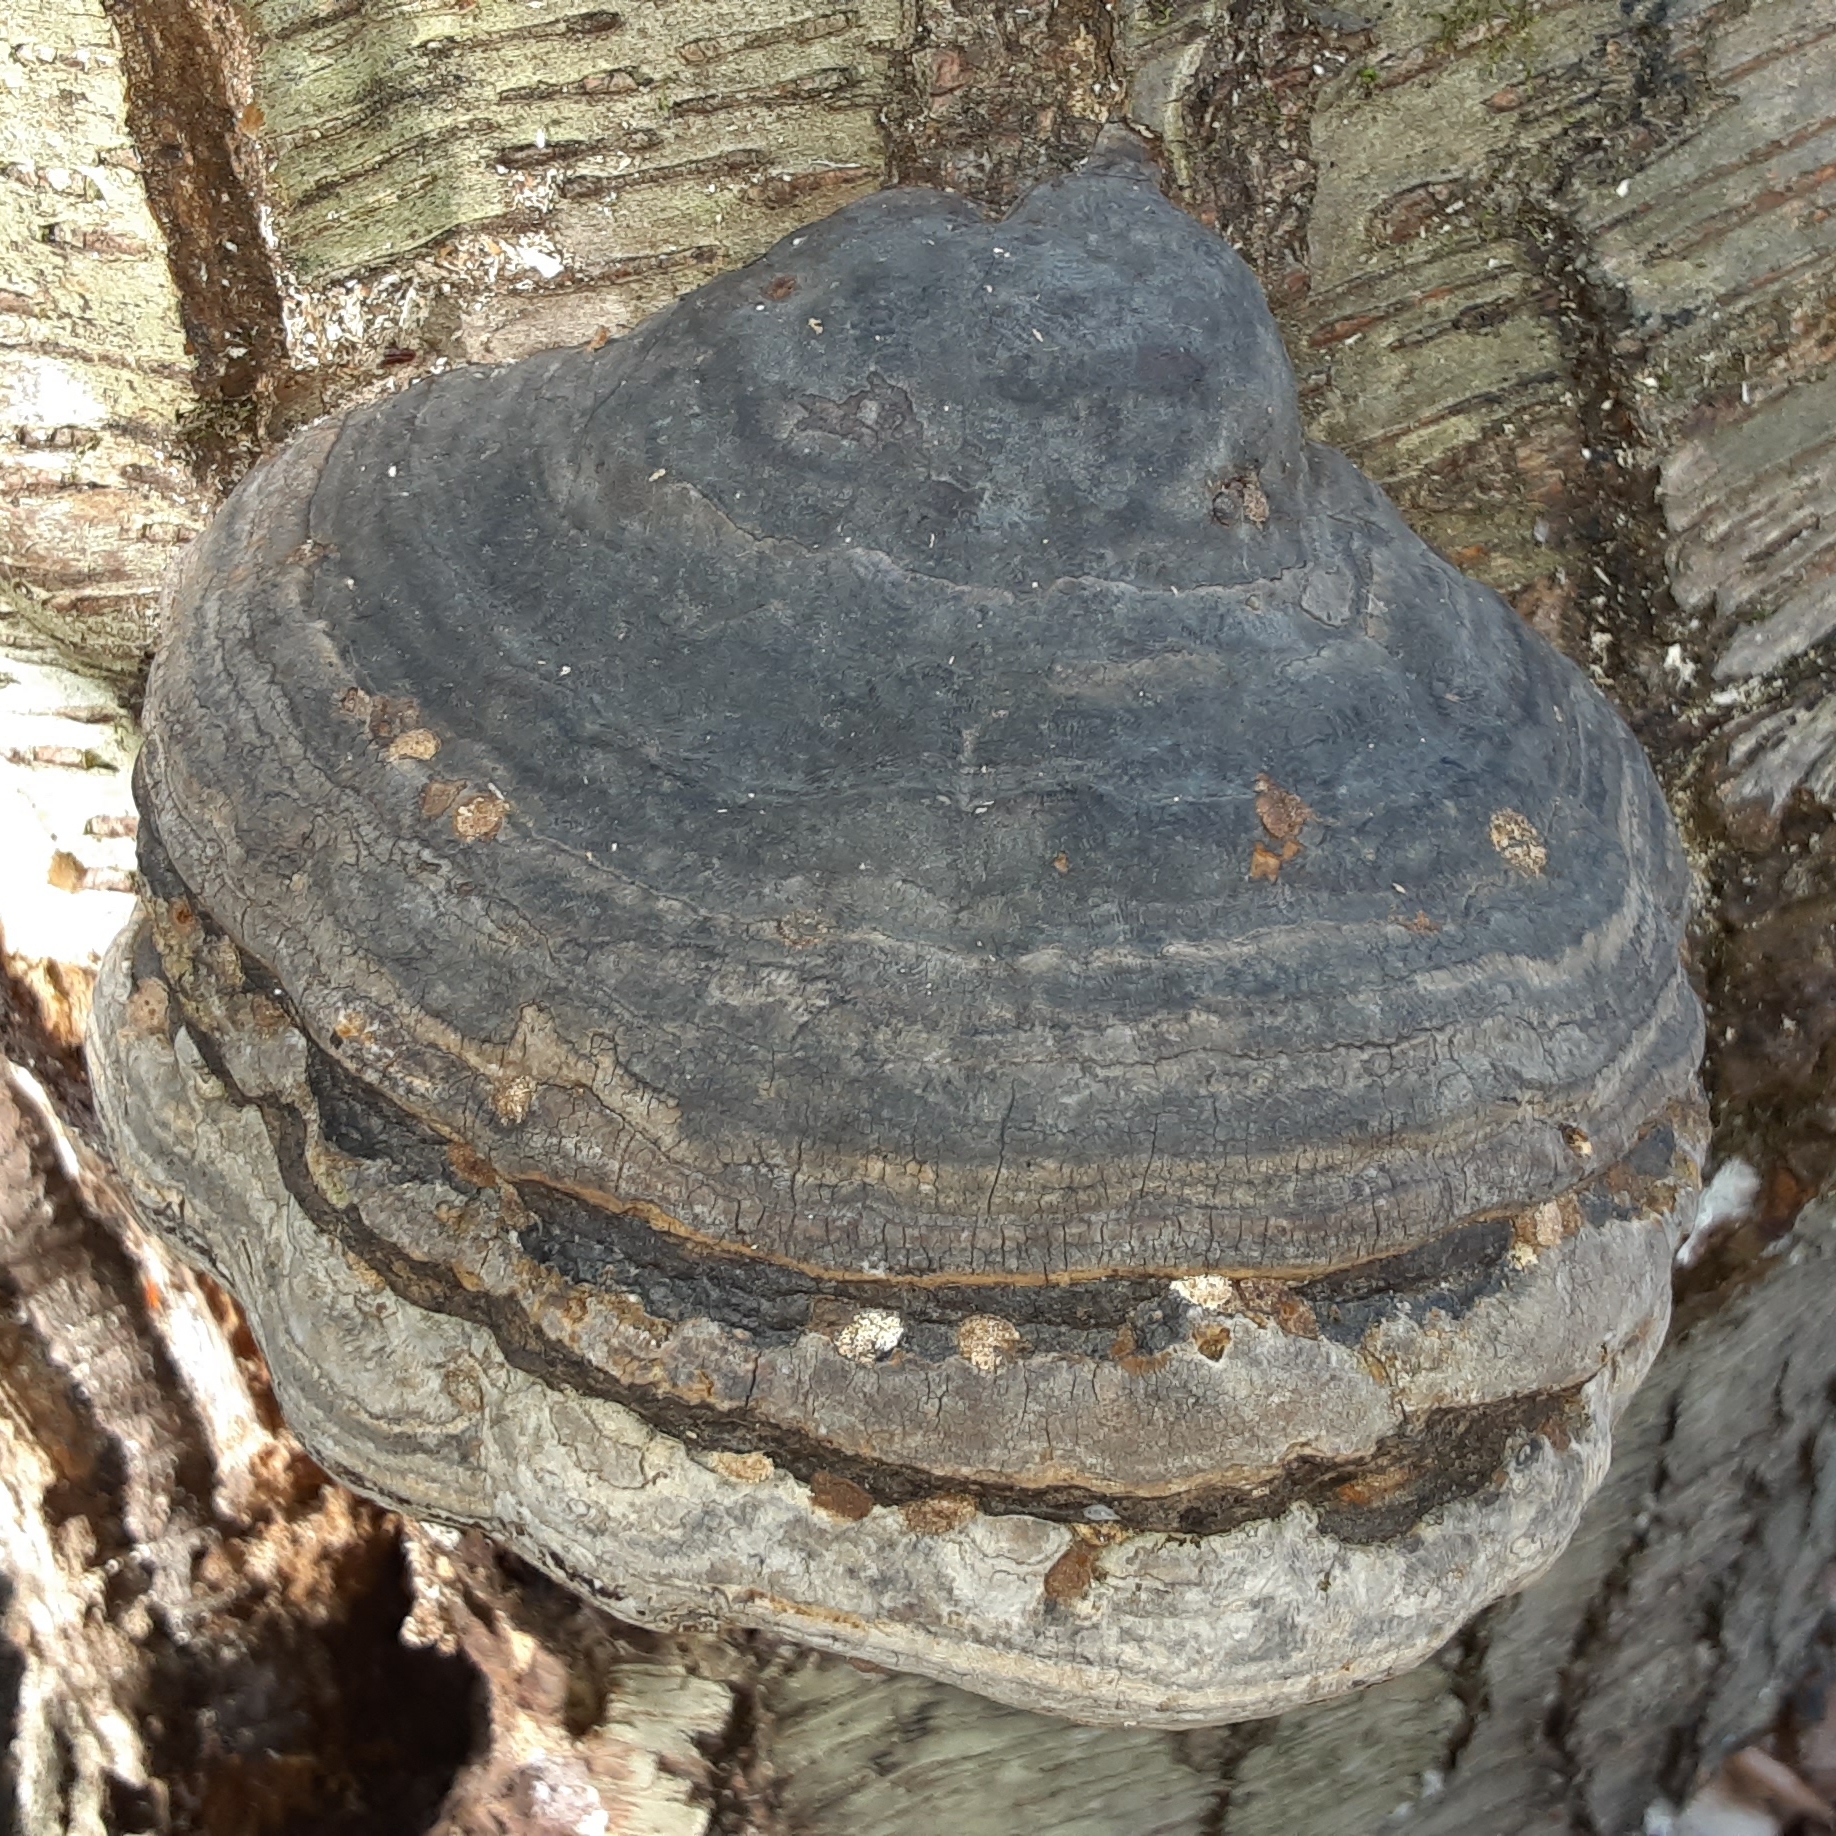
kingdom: Fungi
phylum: Basidiomycota
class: Agaricomycetes
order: Polyporales
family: Polyporaceae
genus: Fomes
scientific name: Fomes fomentarius
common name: Hoof fungus
